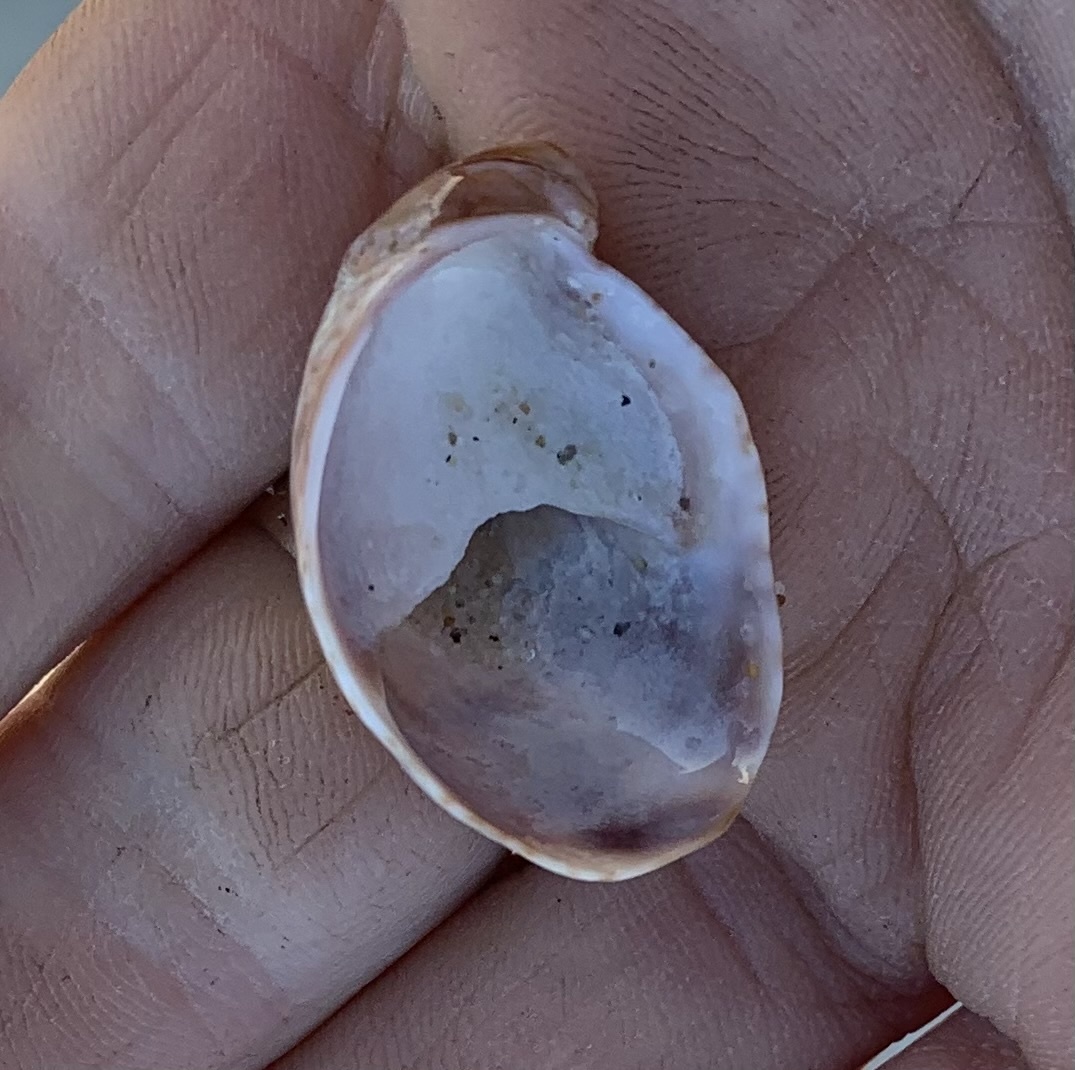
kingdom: Animalia
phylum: Mollusca
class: Gastropoda
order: Littorinimorpha
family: Calyptraeidae
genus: Crepidula
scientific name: Crepidula fornicata
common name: Slipper limpet
